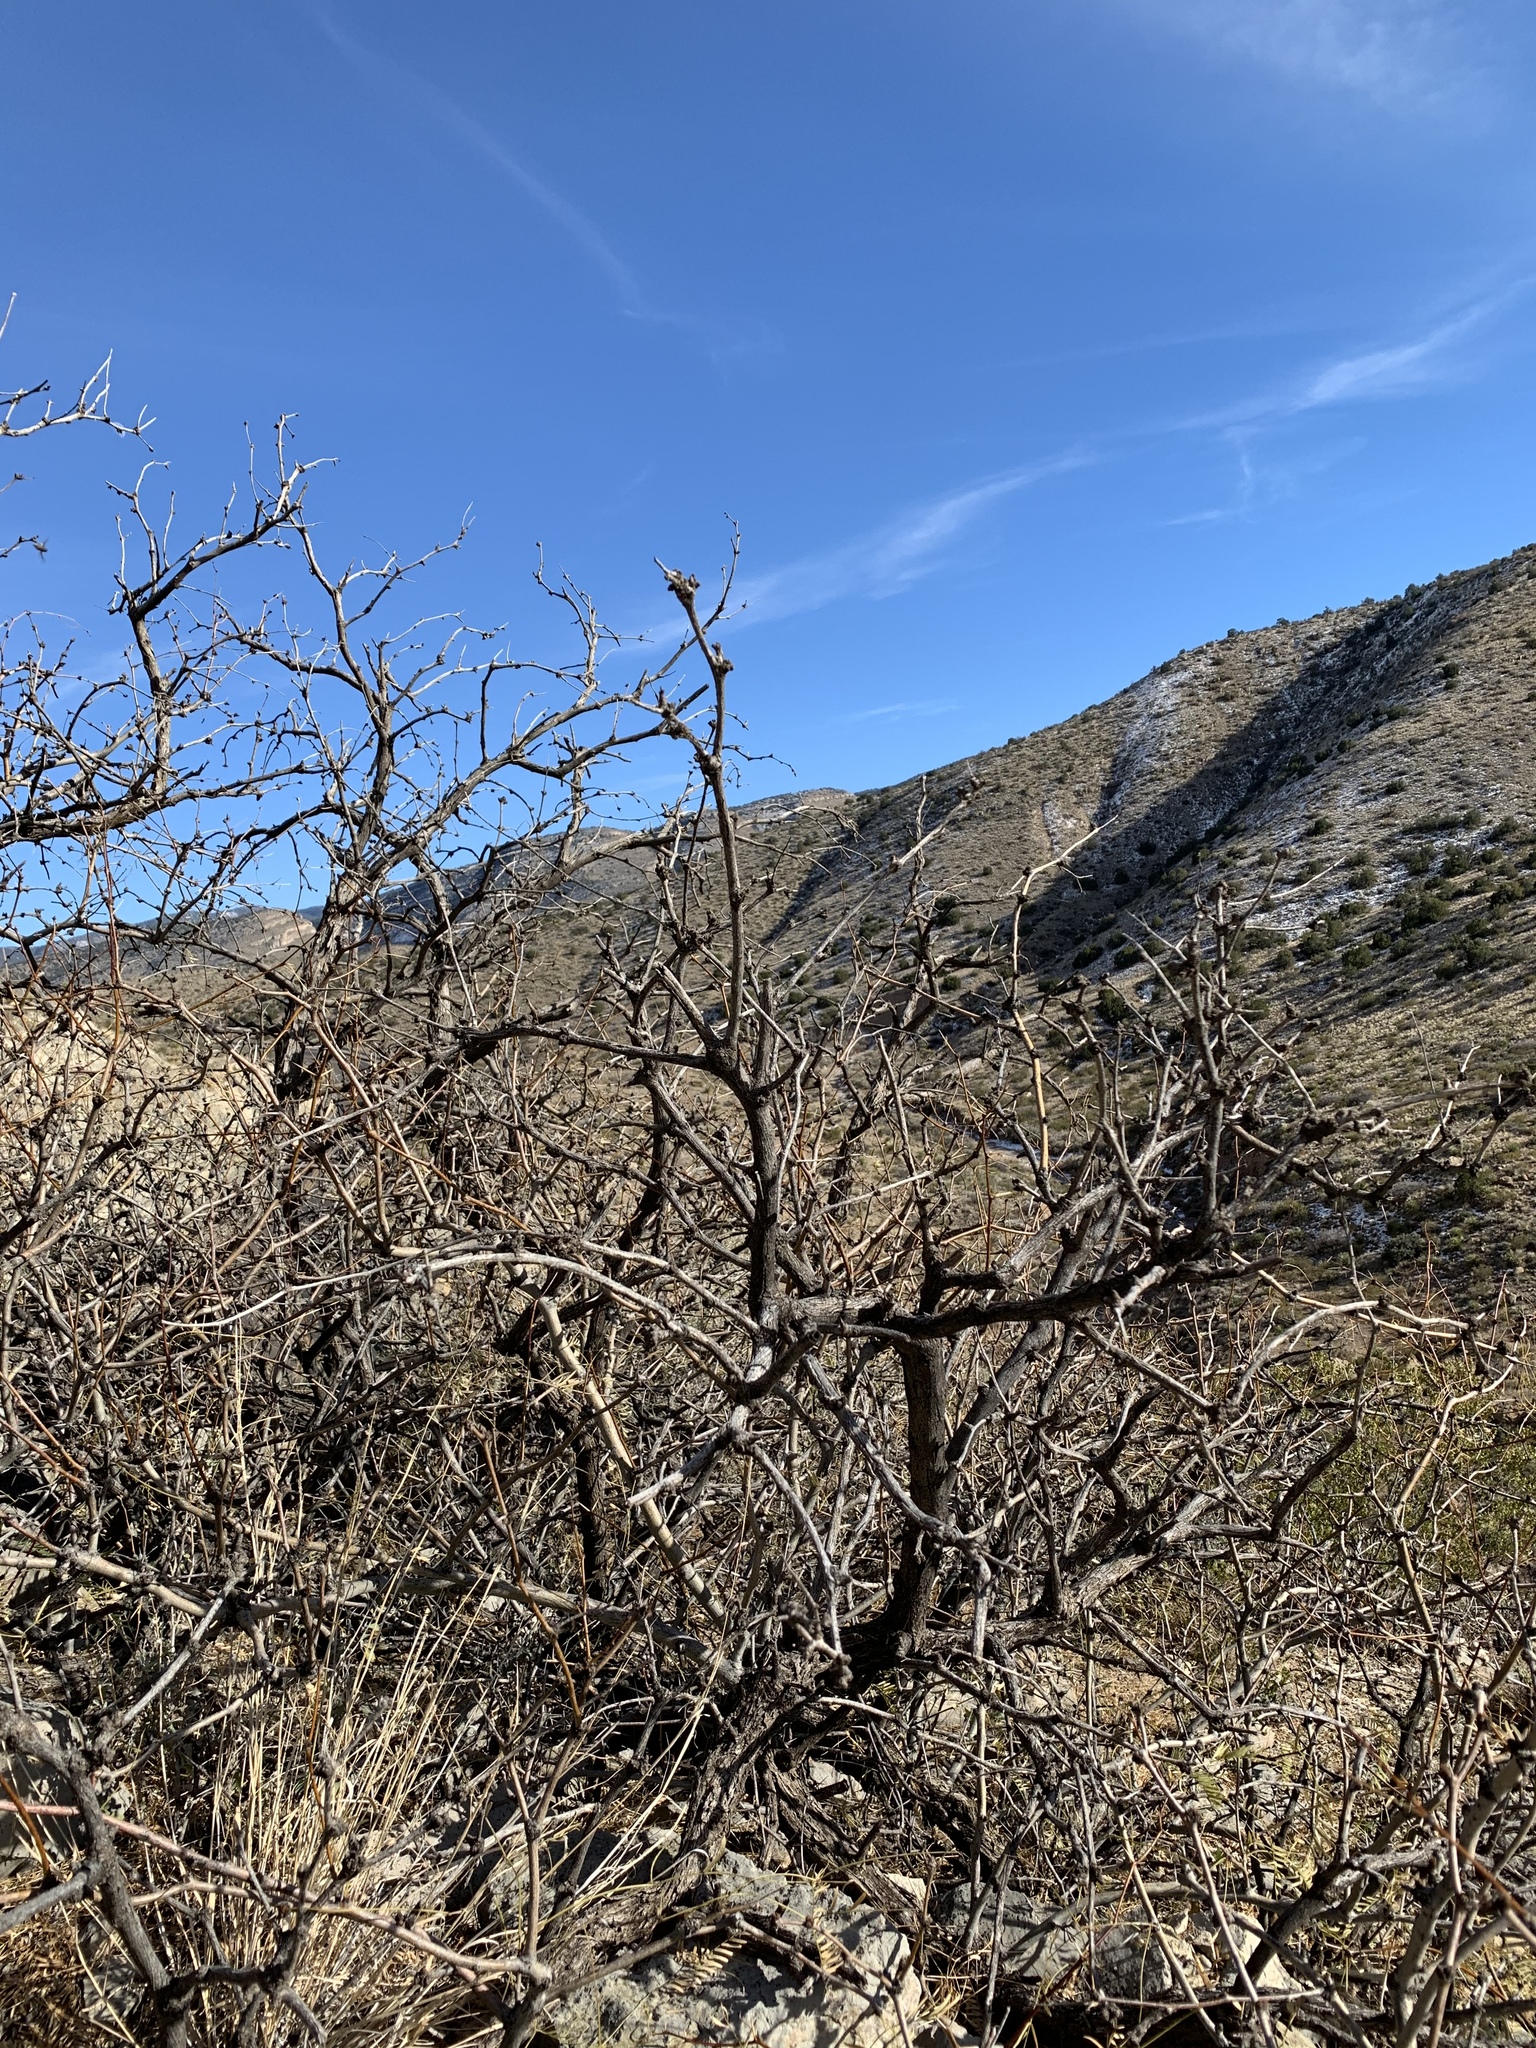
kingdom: Plantae
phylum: Tracheophyta
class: Magnoliopsida
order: Fabales
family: Fabaceae
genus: Prosopis
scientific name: Prosopis glandulosa
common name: Honey mesquite
